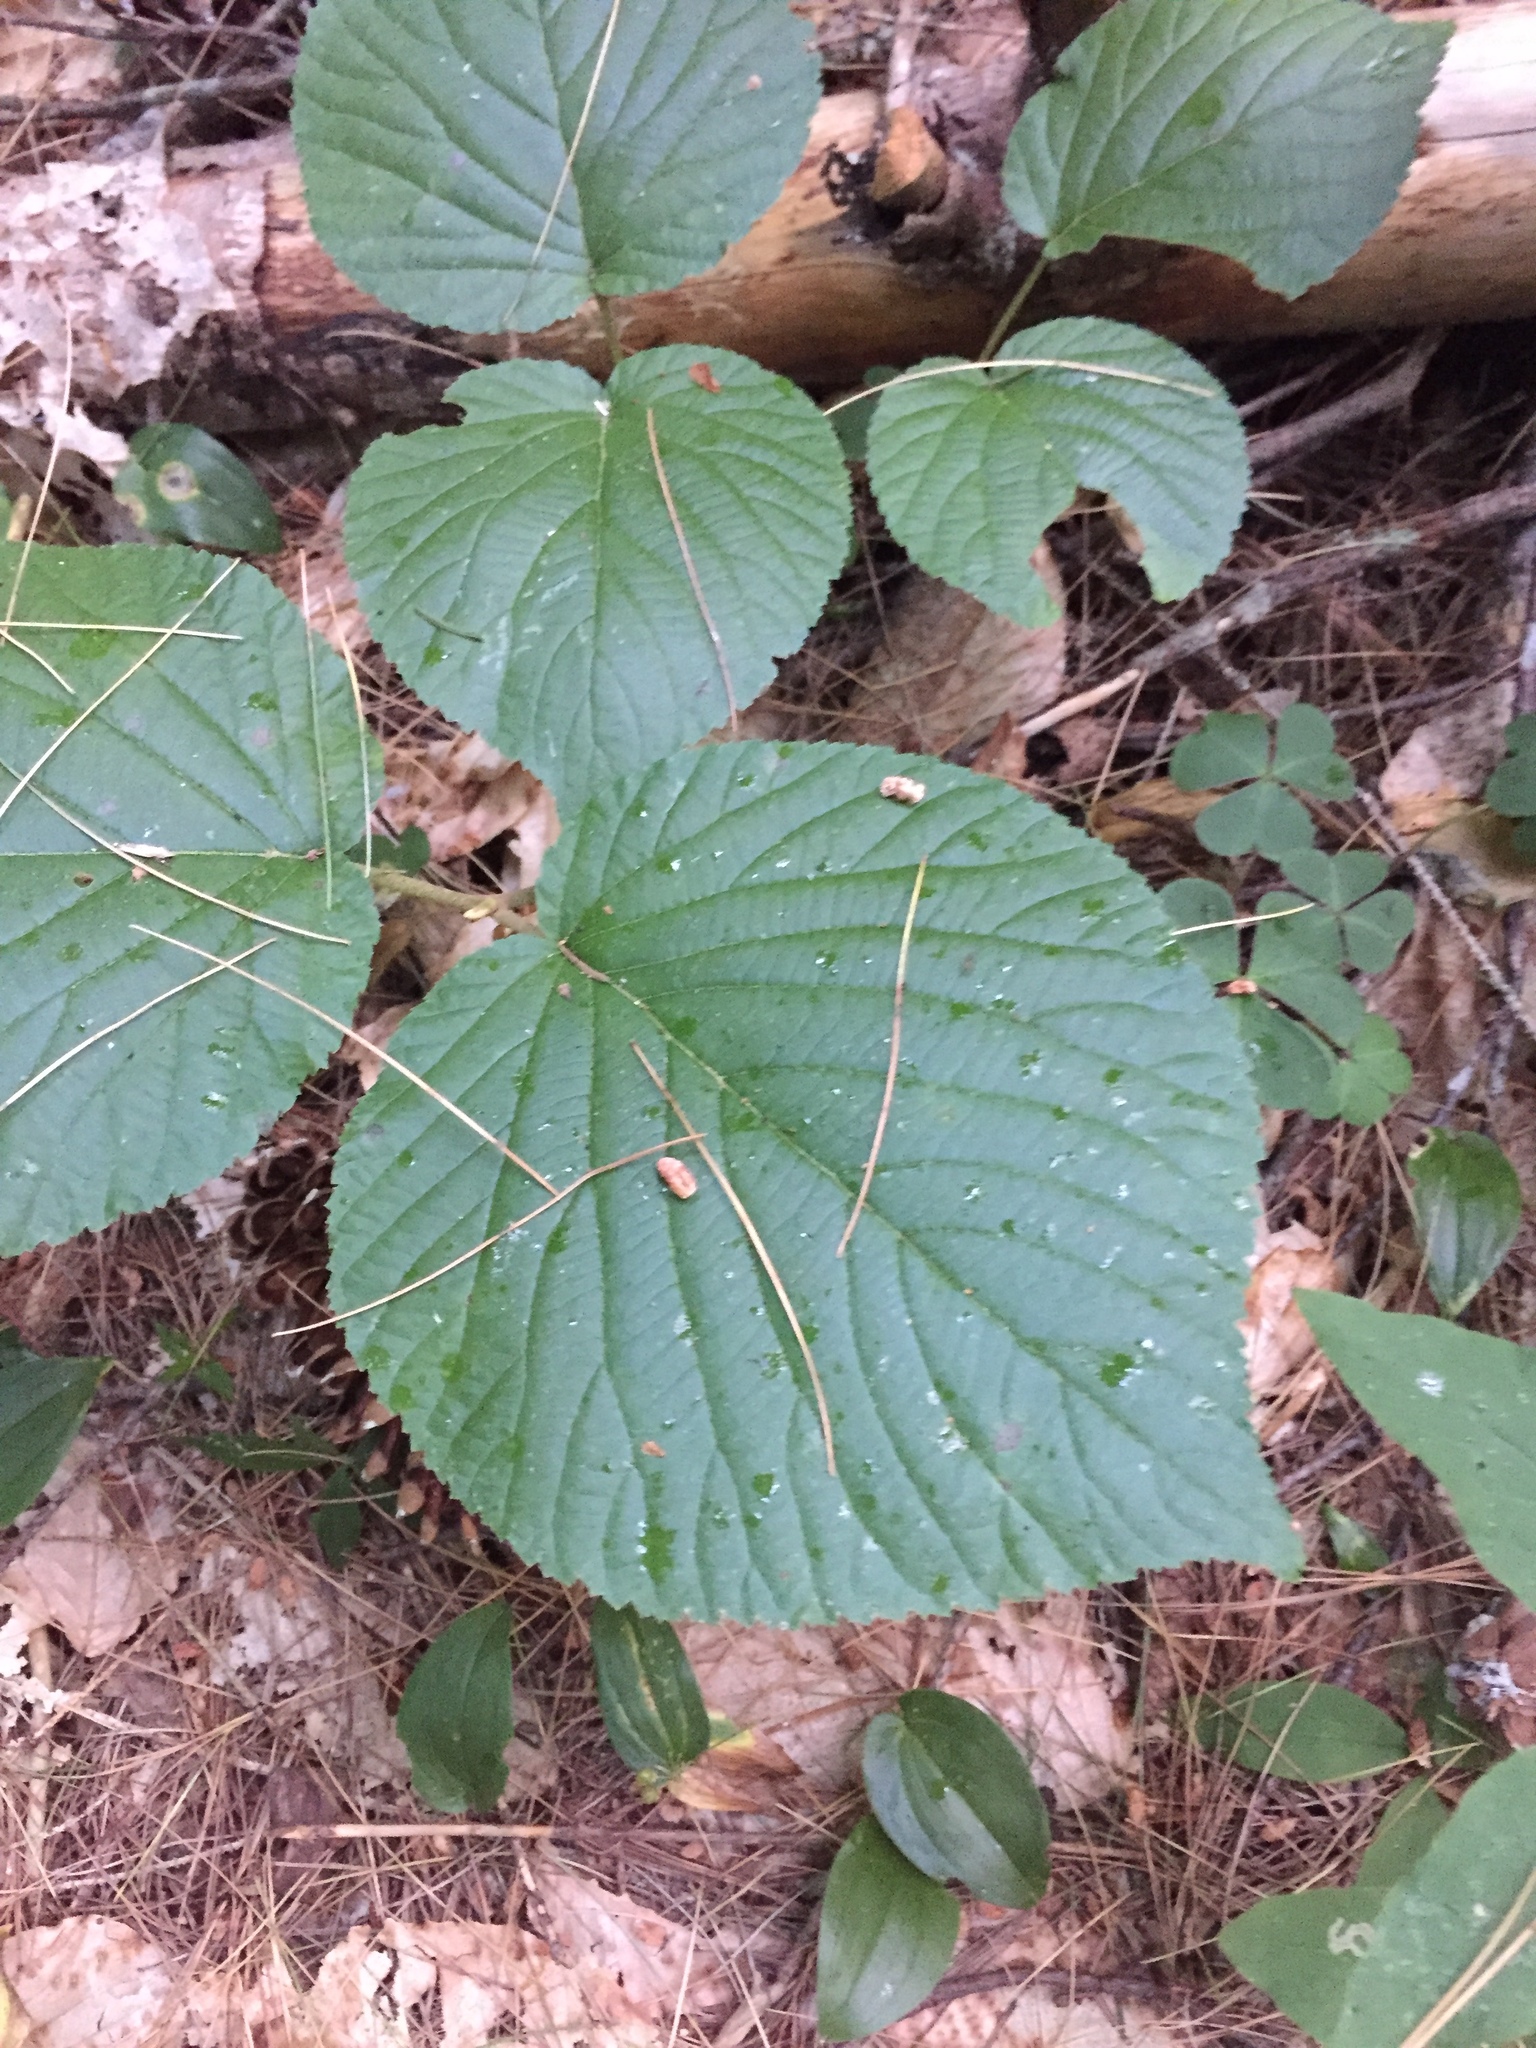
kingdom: Plantae
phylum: Tracheophyta
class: Magnoliopsida
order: Dipsacales
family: Viburnaceae
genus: Viburnum
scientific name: Viburnum lantanoides
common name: Hobblebush
